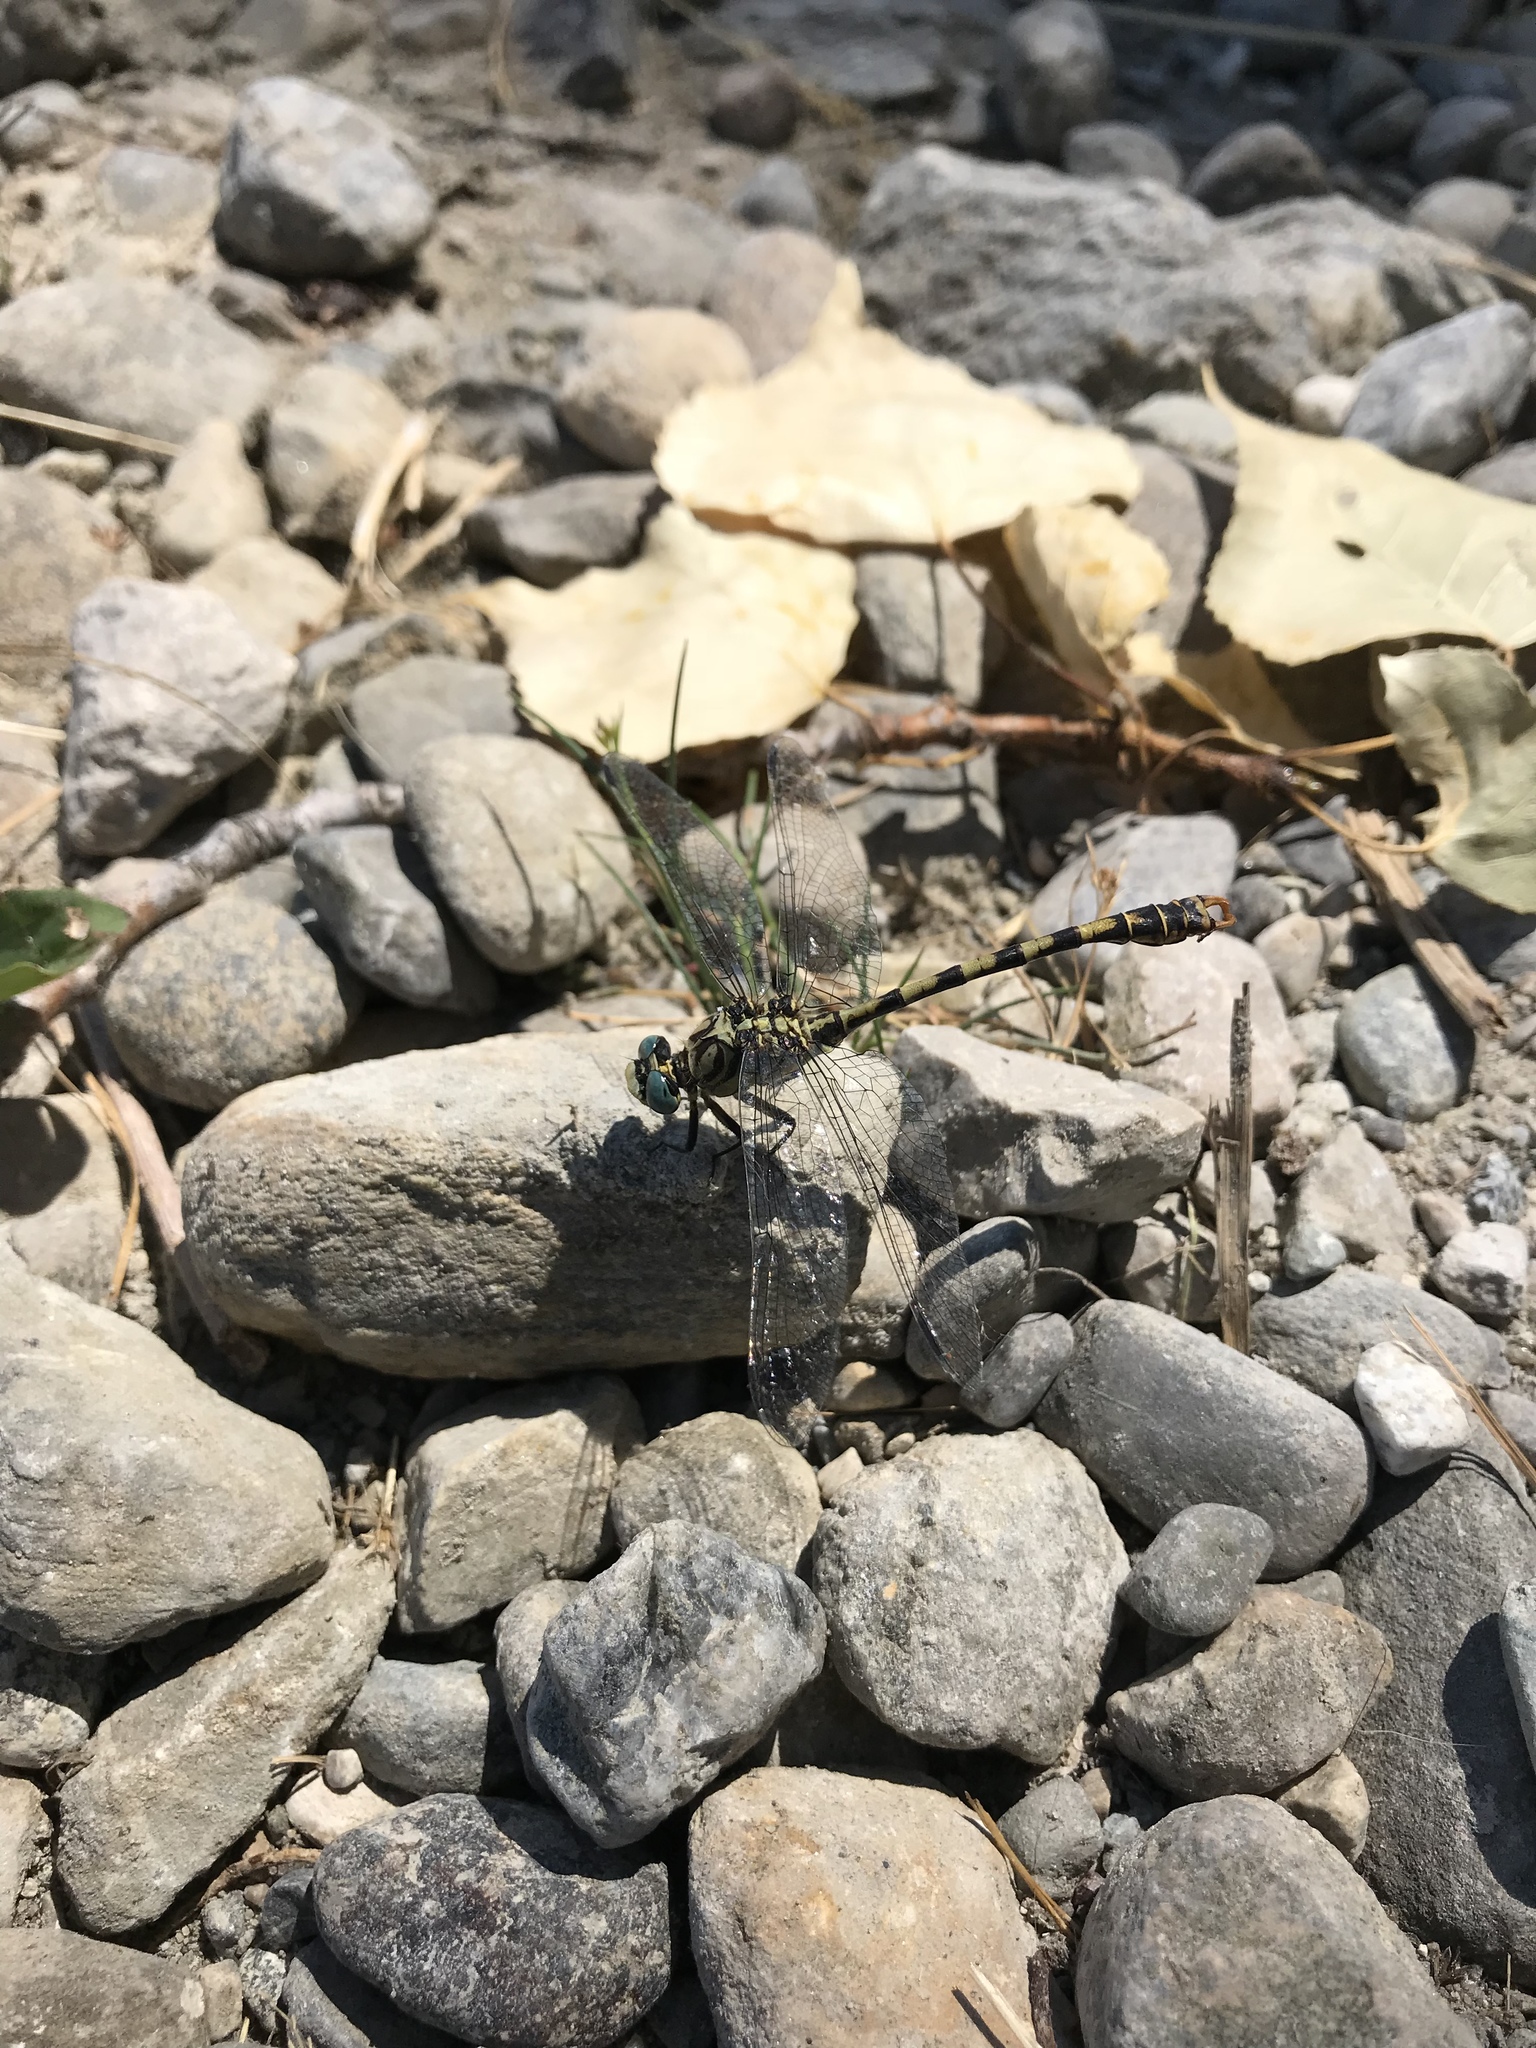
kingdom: Animalia
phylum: Arthropoda
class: Insecta
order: Odonata
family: Gomphidae
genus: Onychogomphus
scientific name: Onychogomphus forcipatus
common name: Small pincertail
